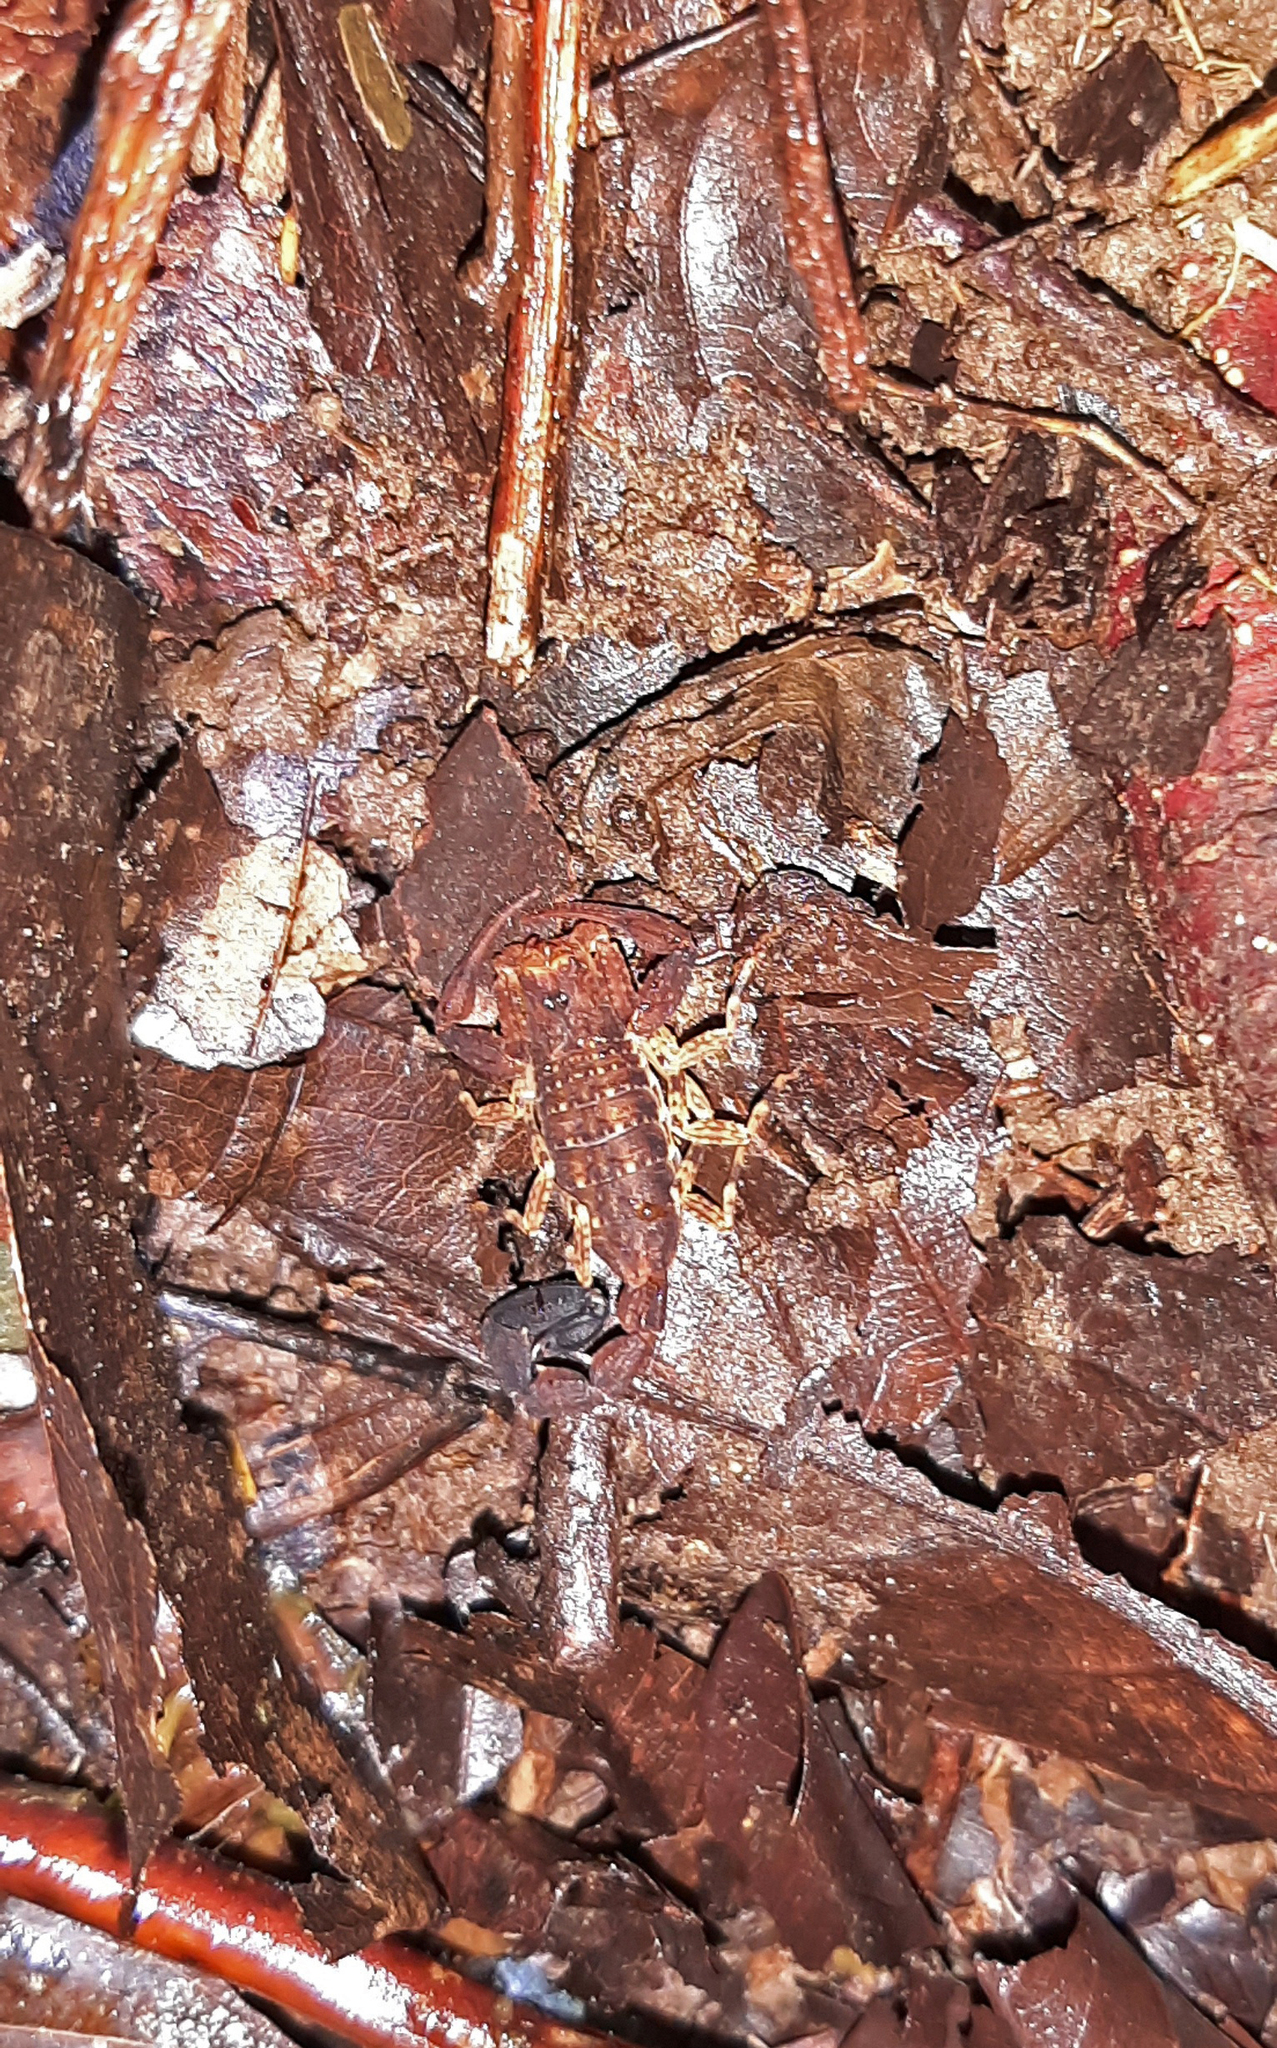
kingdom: Animalia
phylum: Arthropoda
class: Arachnida
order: Scorpiones
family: Buthidae
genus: Tityus
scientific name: Tityus bastosi
